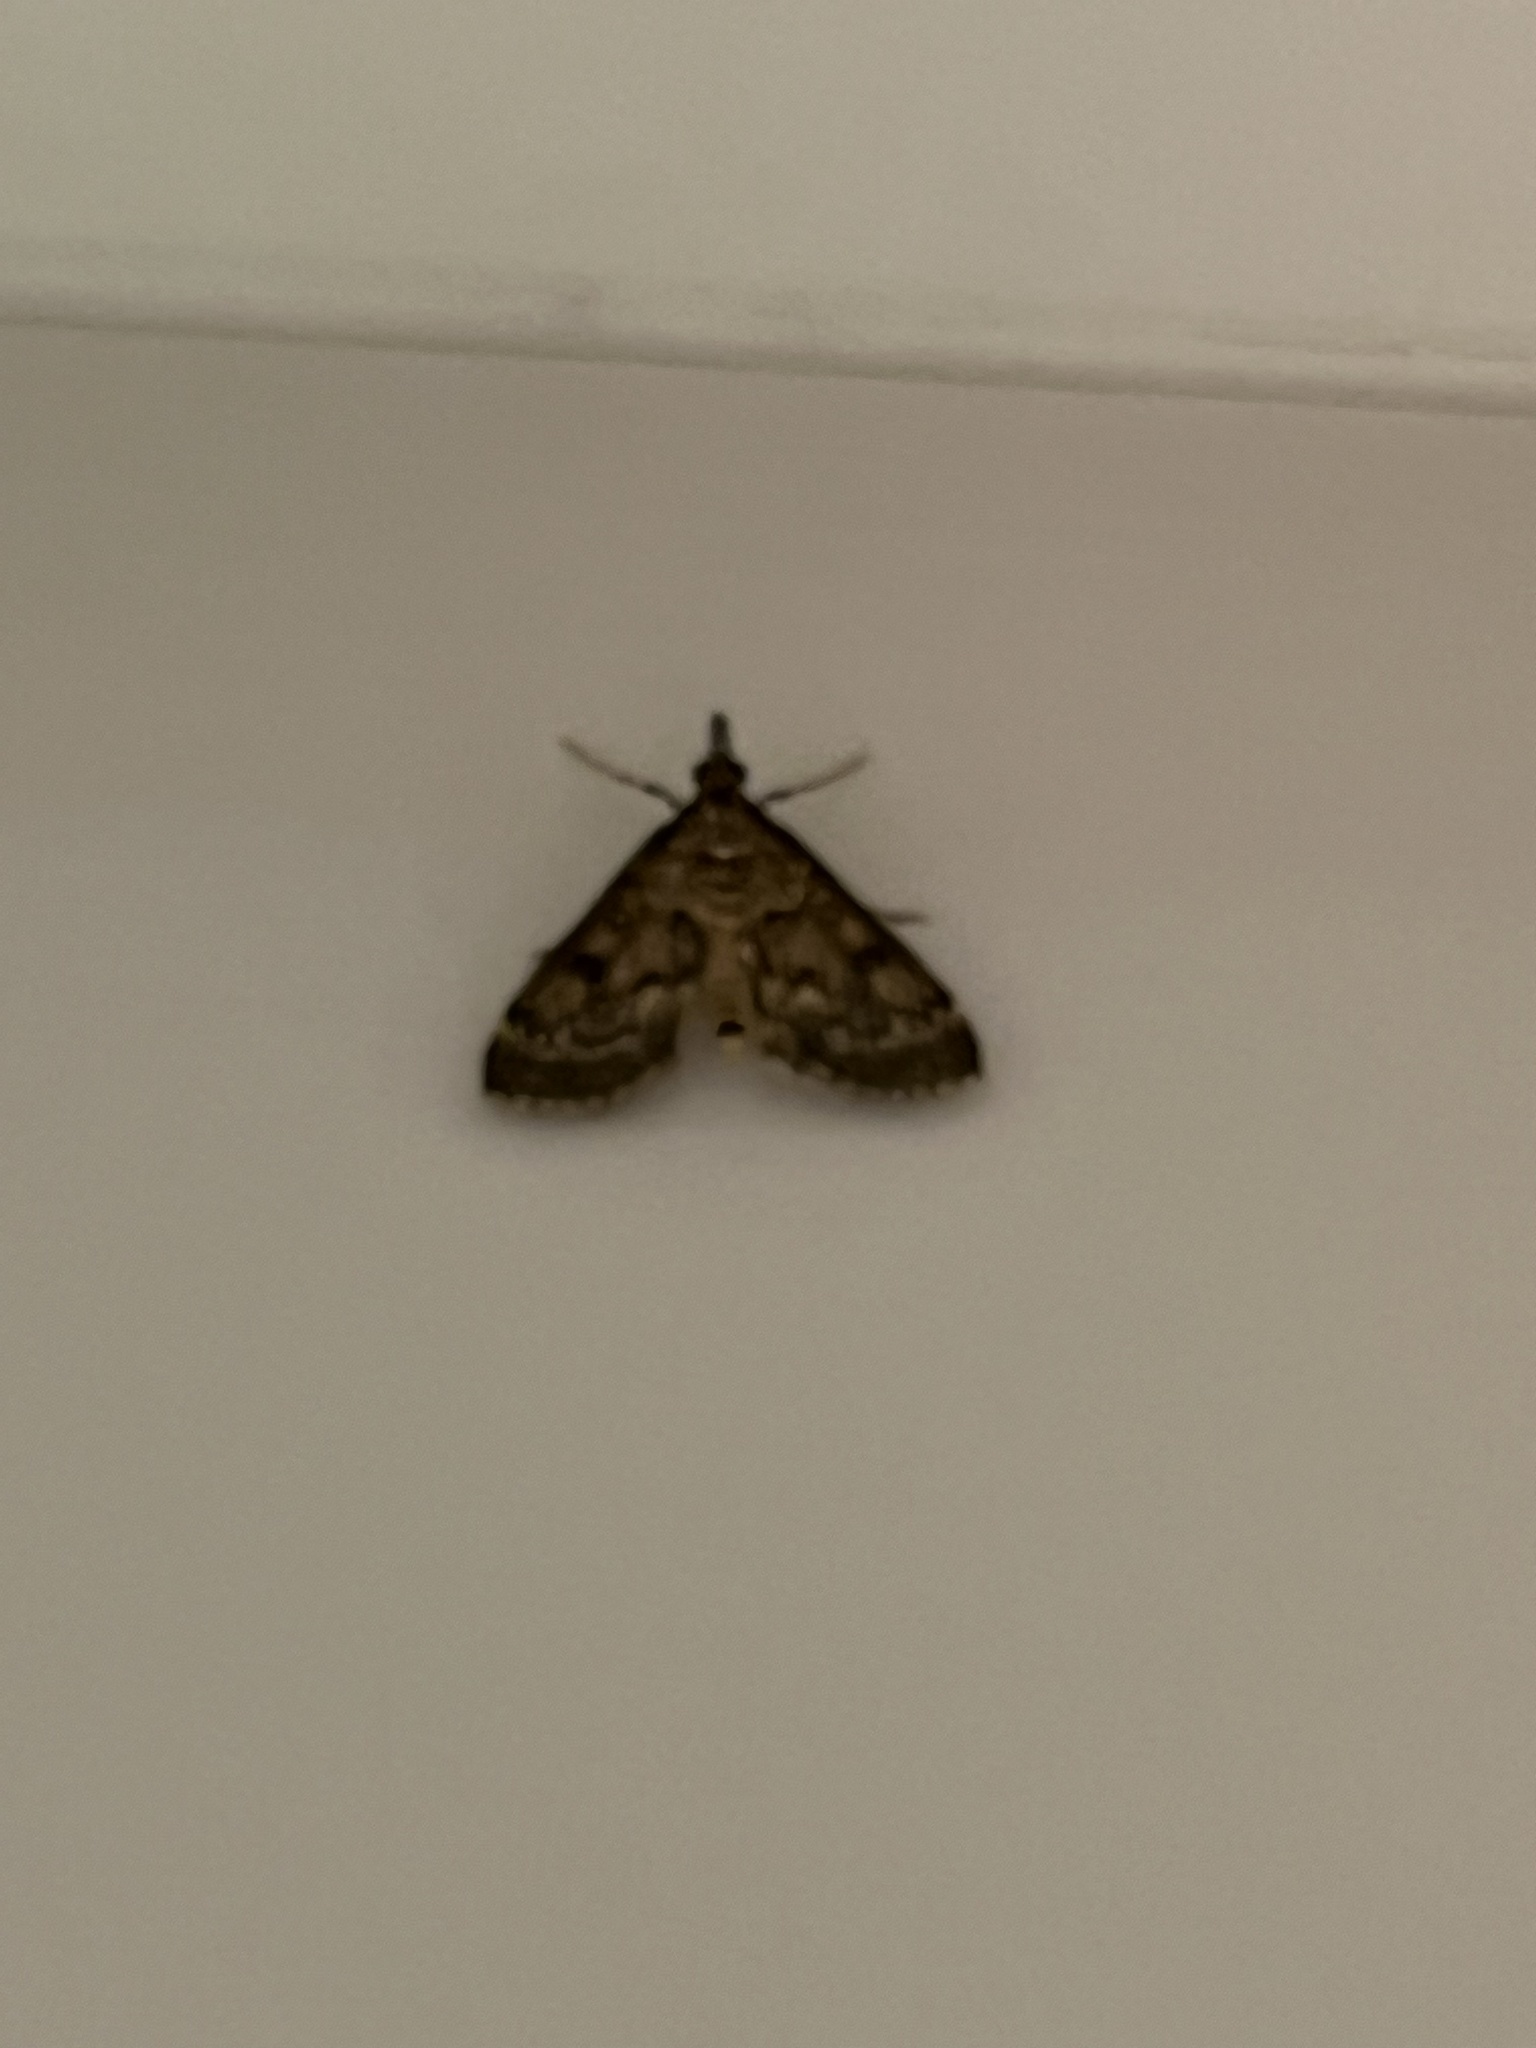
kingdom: Animalia
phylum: Arthropoda
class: Insecta
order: Lepidoptera
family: Crambidae
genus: Loxostege
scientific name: Loxostege Proternia philocapna
